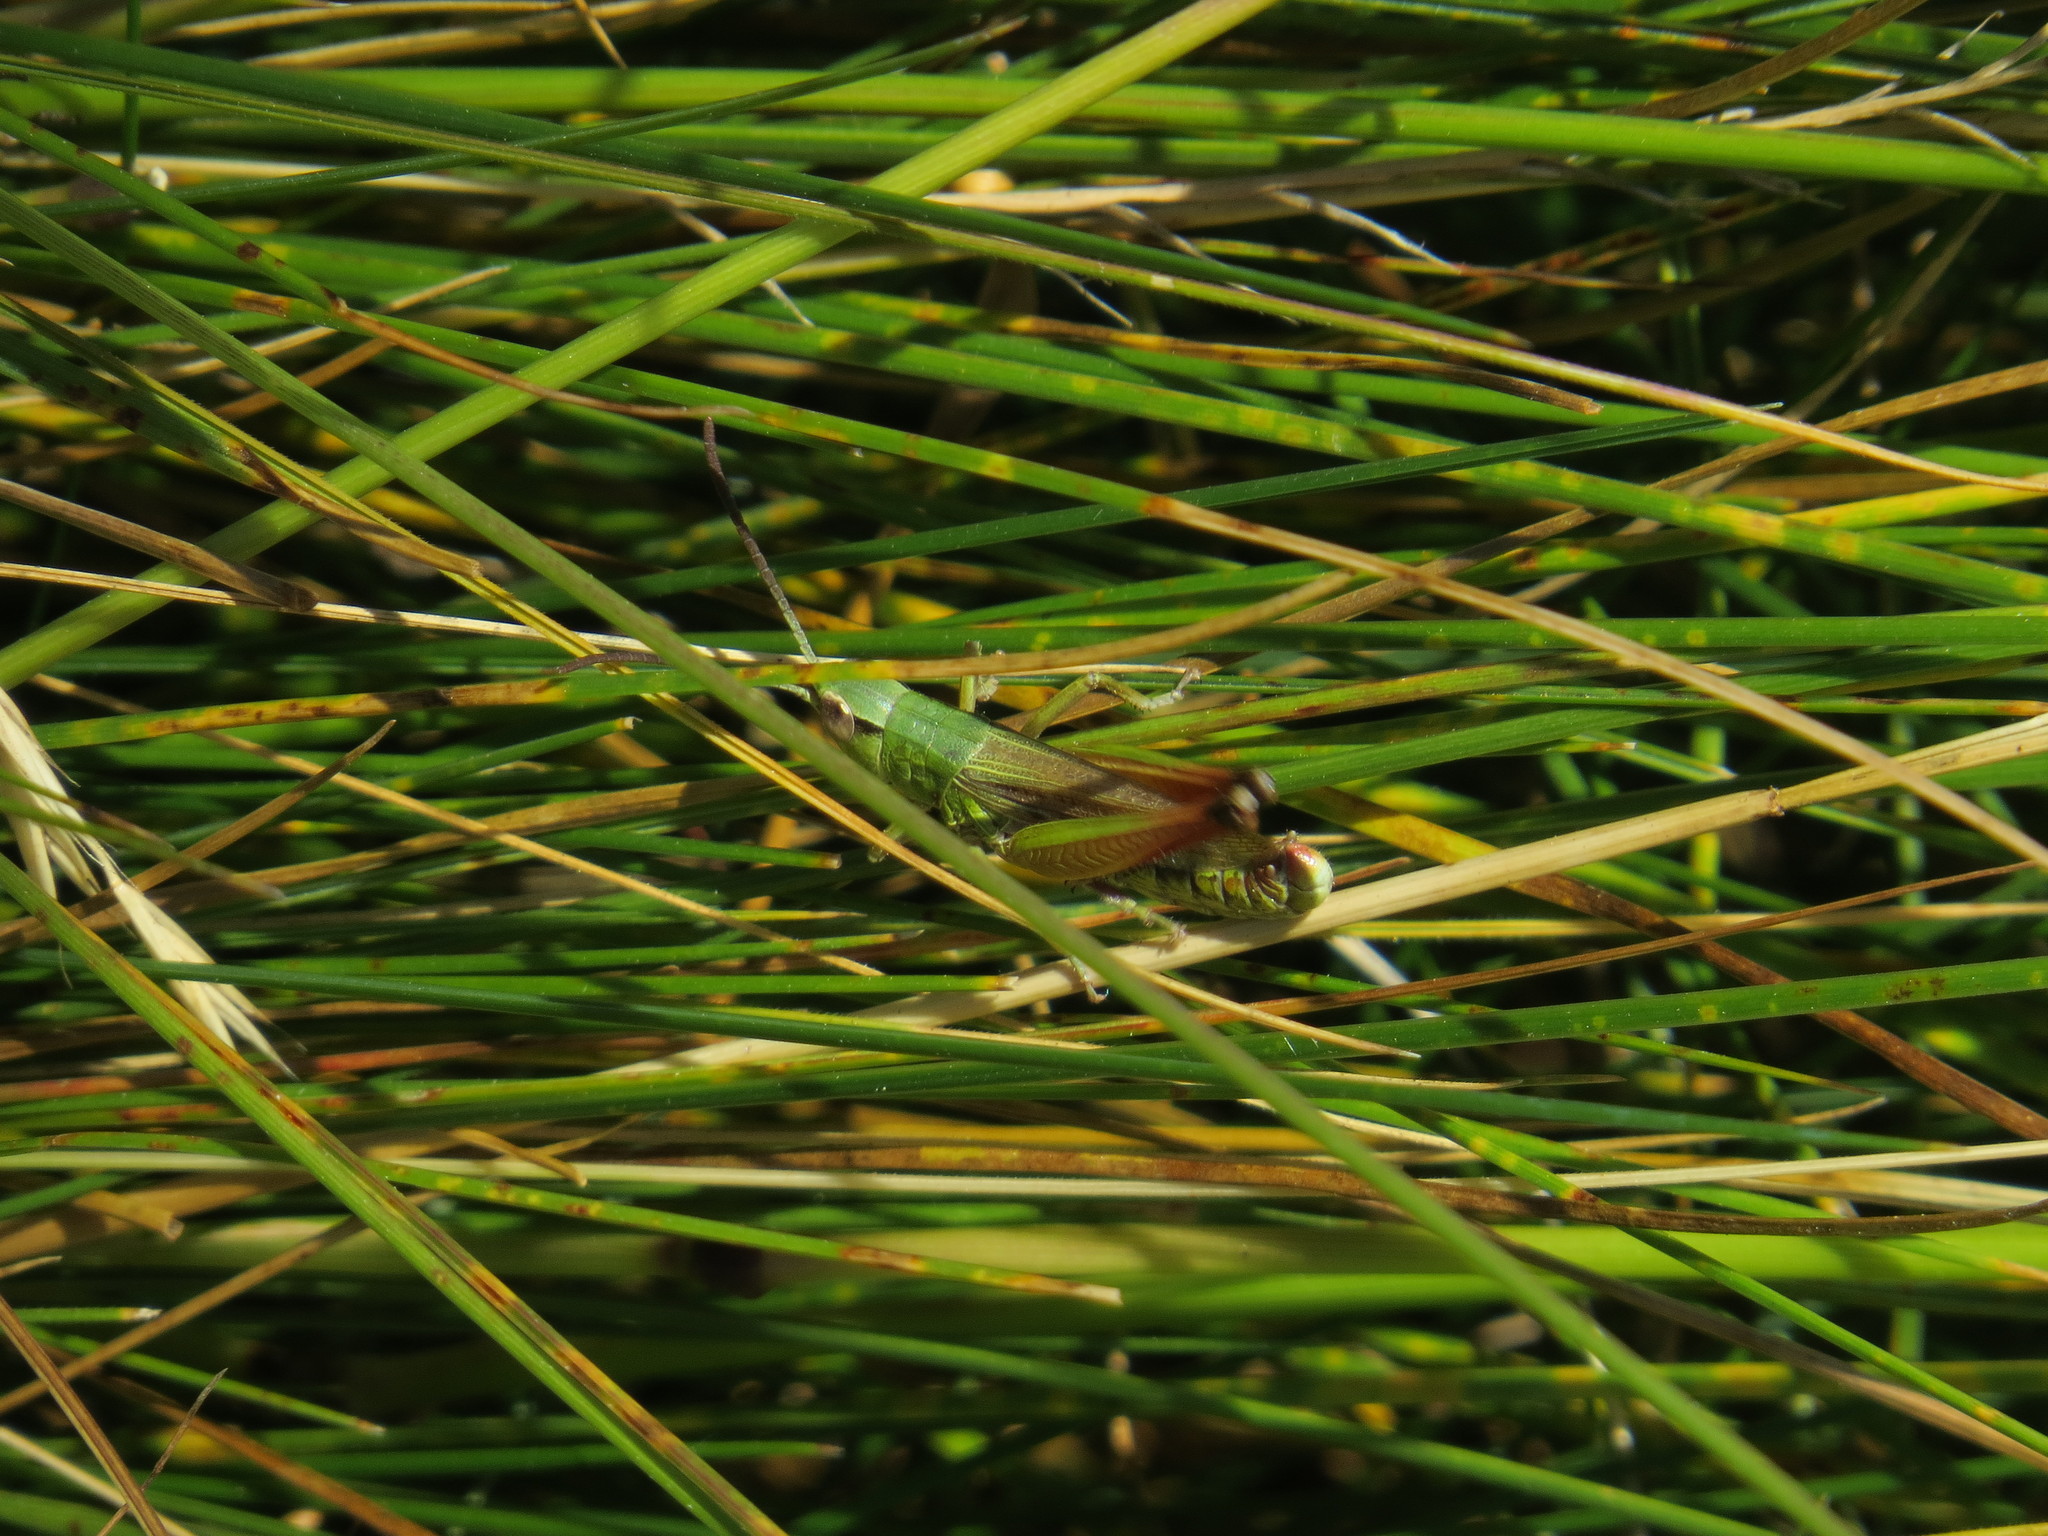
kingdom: Animalia
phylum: Arthropoda
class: Insecta
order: Orthoptera
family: Acrididae
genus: Pseudochorthippus
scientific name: Pseudochorthippus parallelus
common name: Meadow grasshopper
